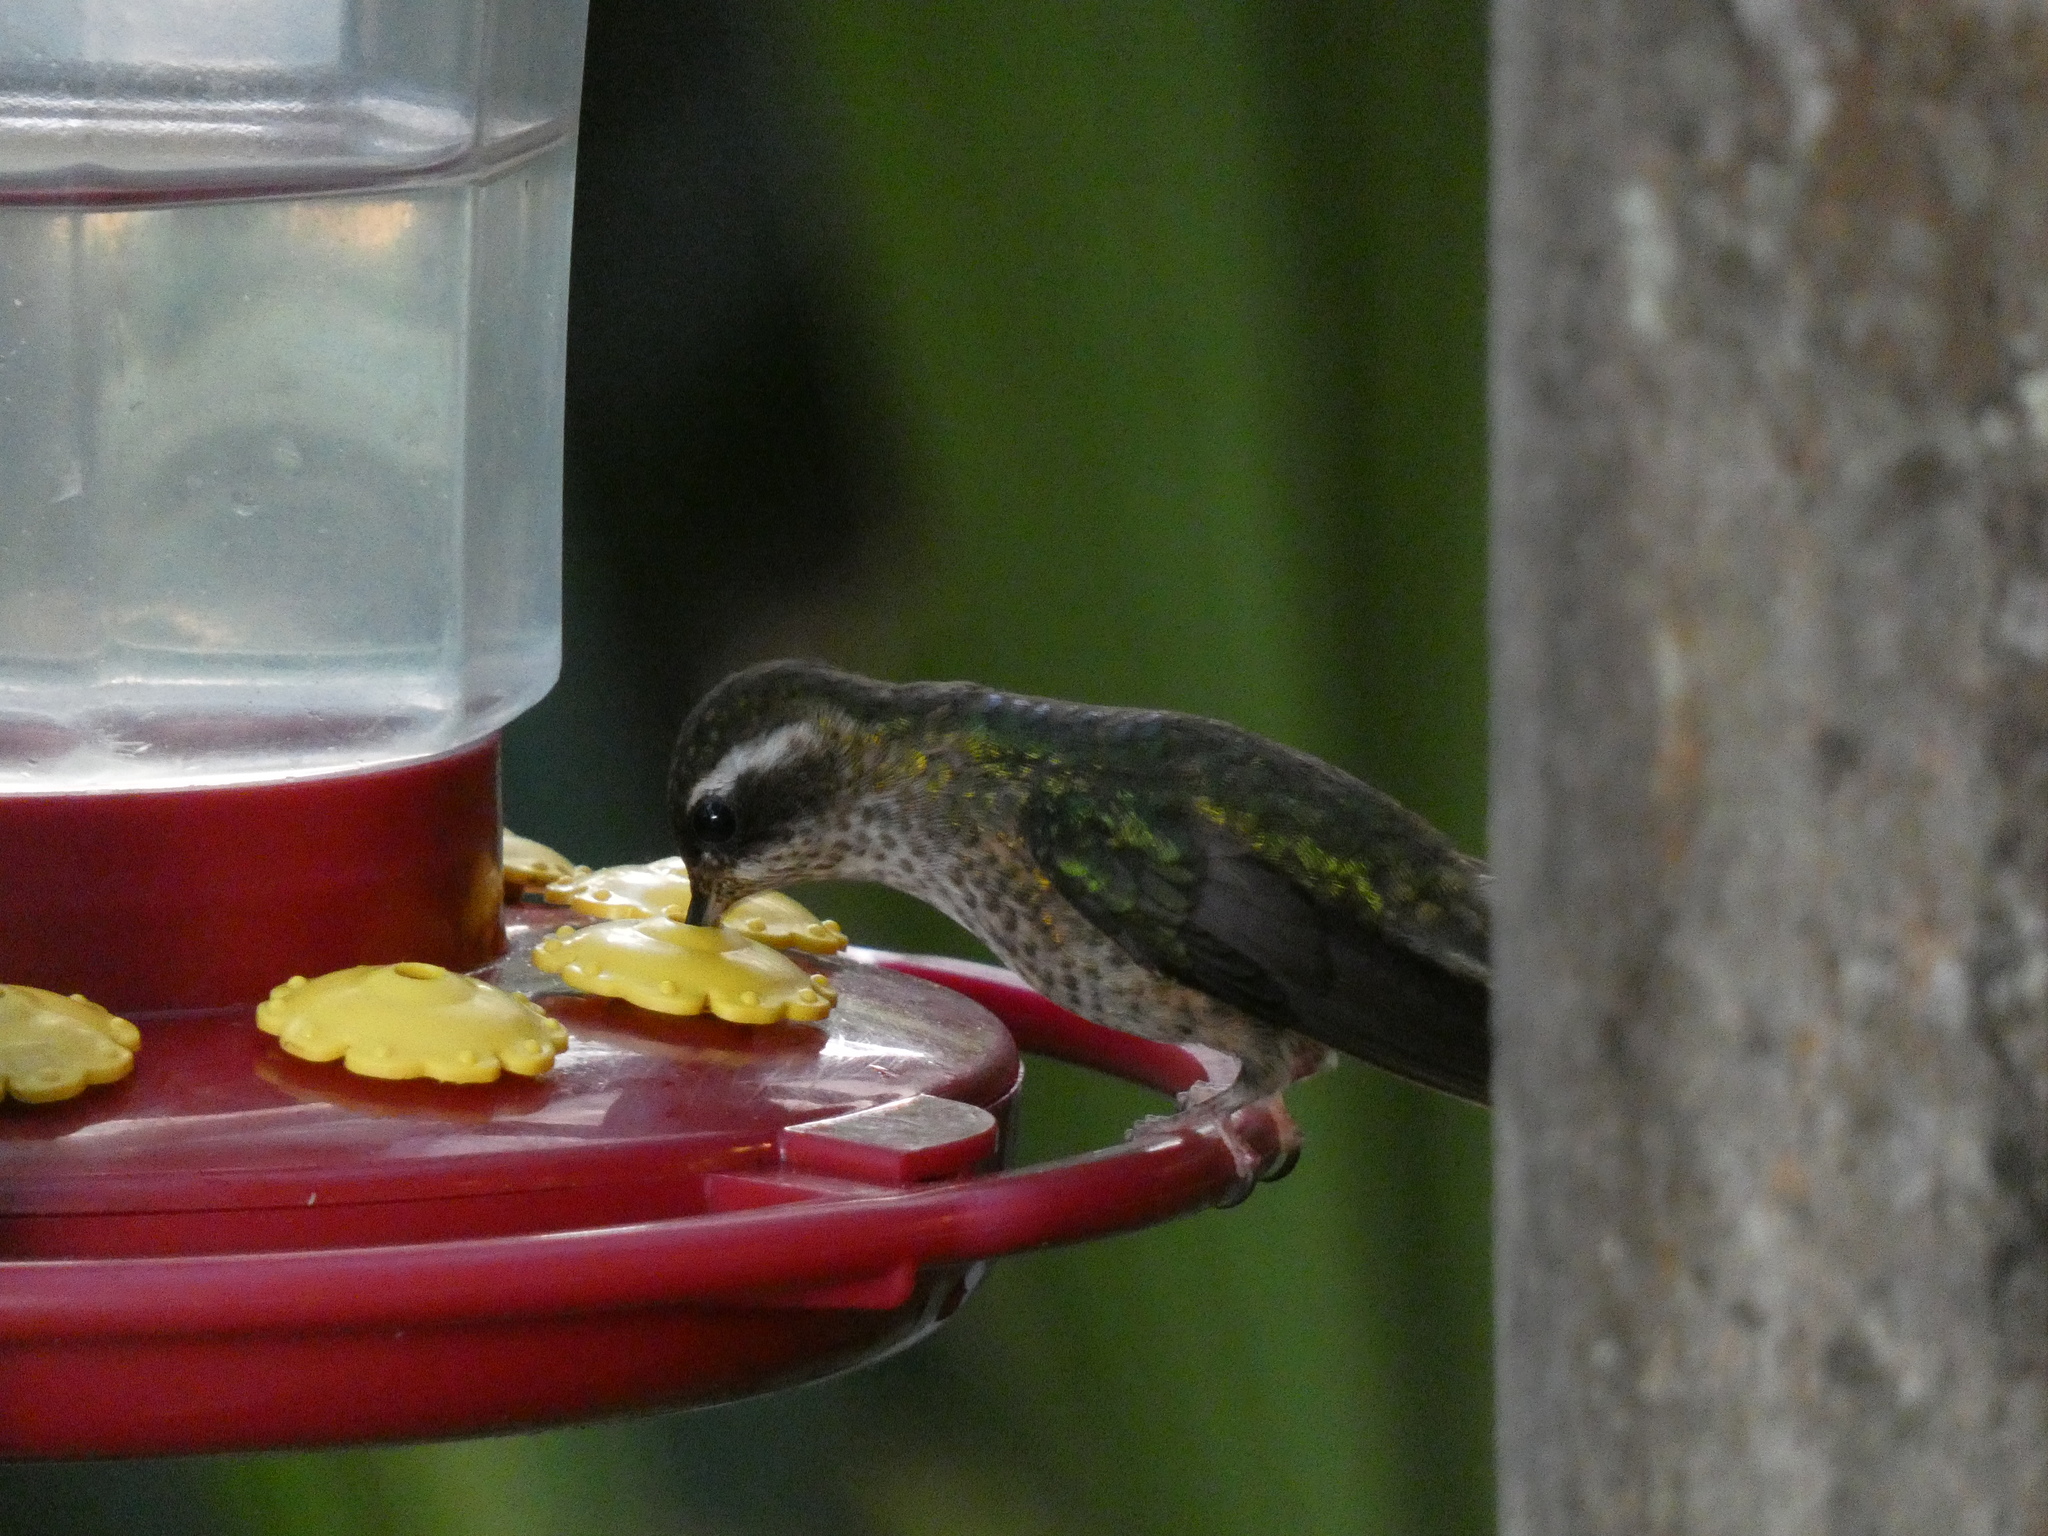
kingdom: Animalia
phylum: Chordata
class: Aves
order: Apodiformes
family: Trochilidae
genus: Adelomyia
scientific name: Adelomyia melanogenys
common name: Speckled hummingbird
